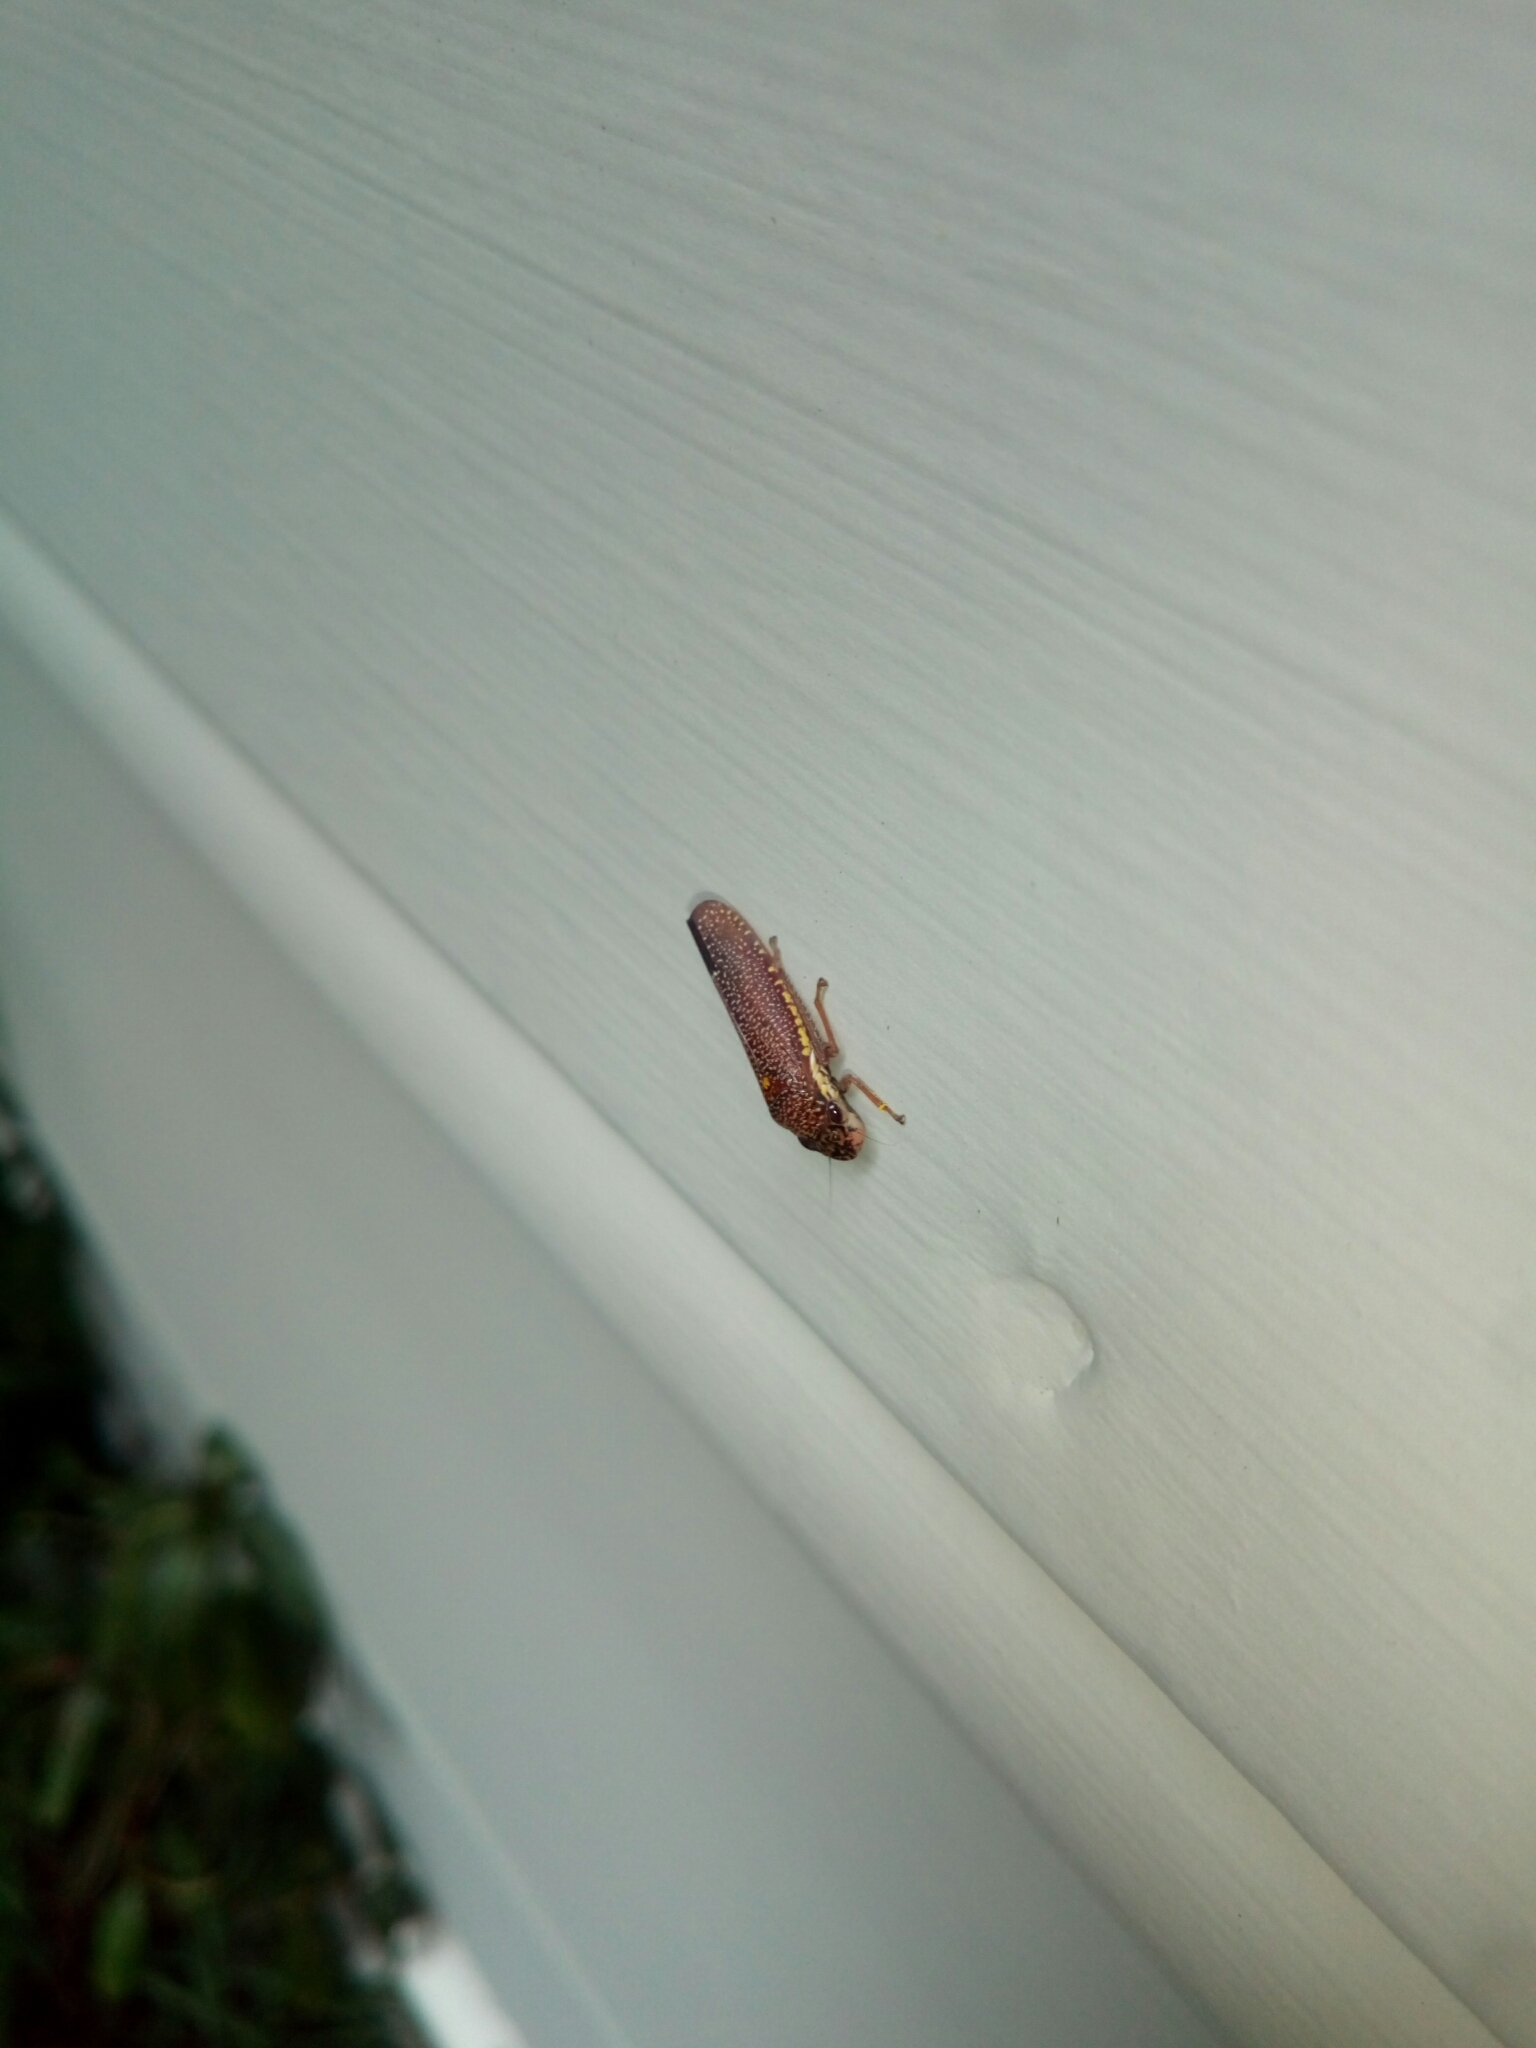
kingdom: Animalia
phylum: Arthropoda
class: Insecta
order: Hemiptera
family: Cicadellidae
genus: Paraulacizes
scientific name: Paraulacizes irrorata
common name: Speckled sharpshooter
